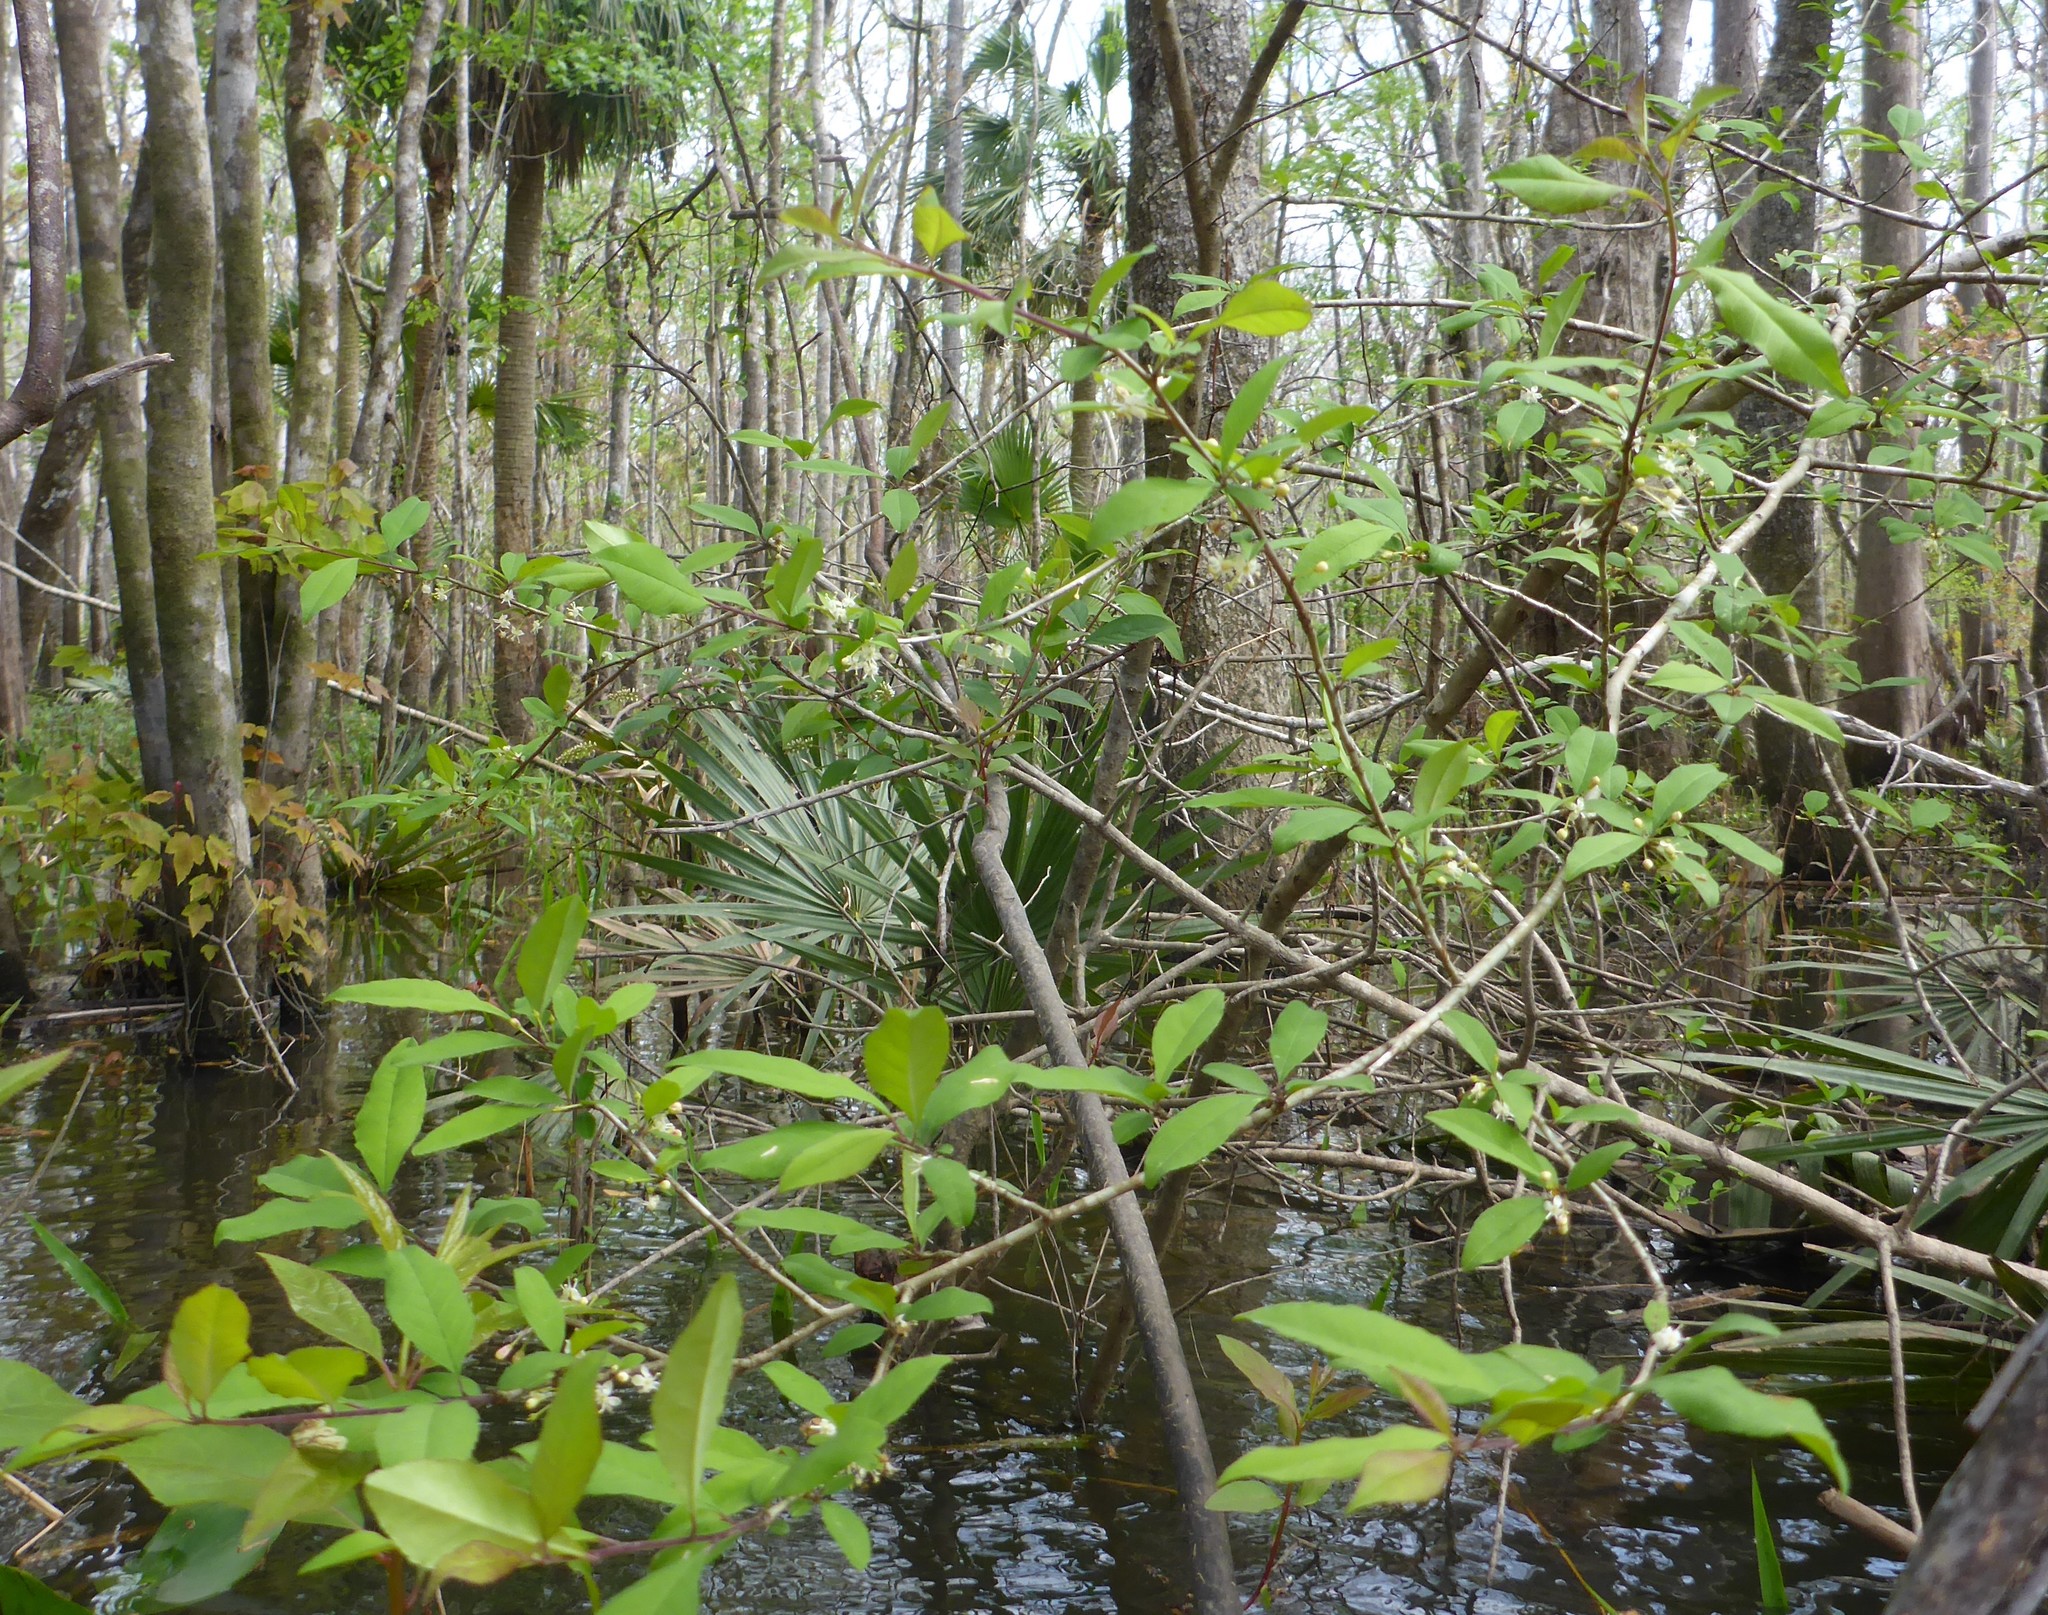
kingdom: Plantae
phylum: Tracheophyta
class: Magnoliopsida
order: Aquifoliales
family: Aquifoliaceae
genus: Ilex
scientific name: Ilex longipes
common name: Georgia holly
